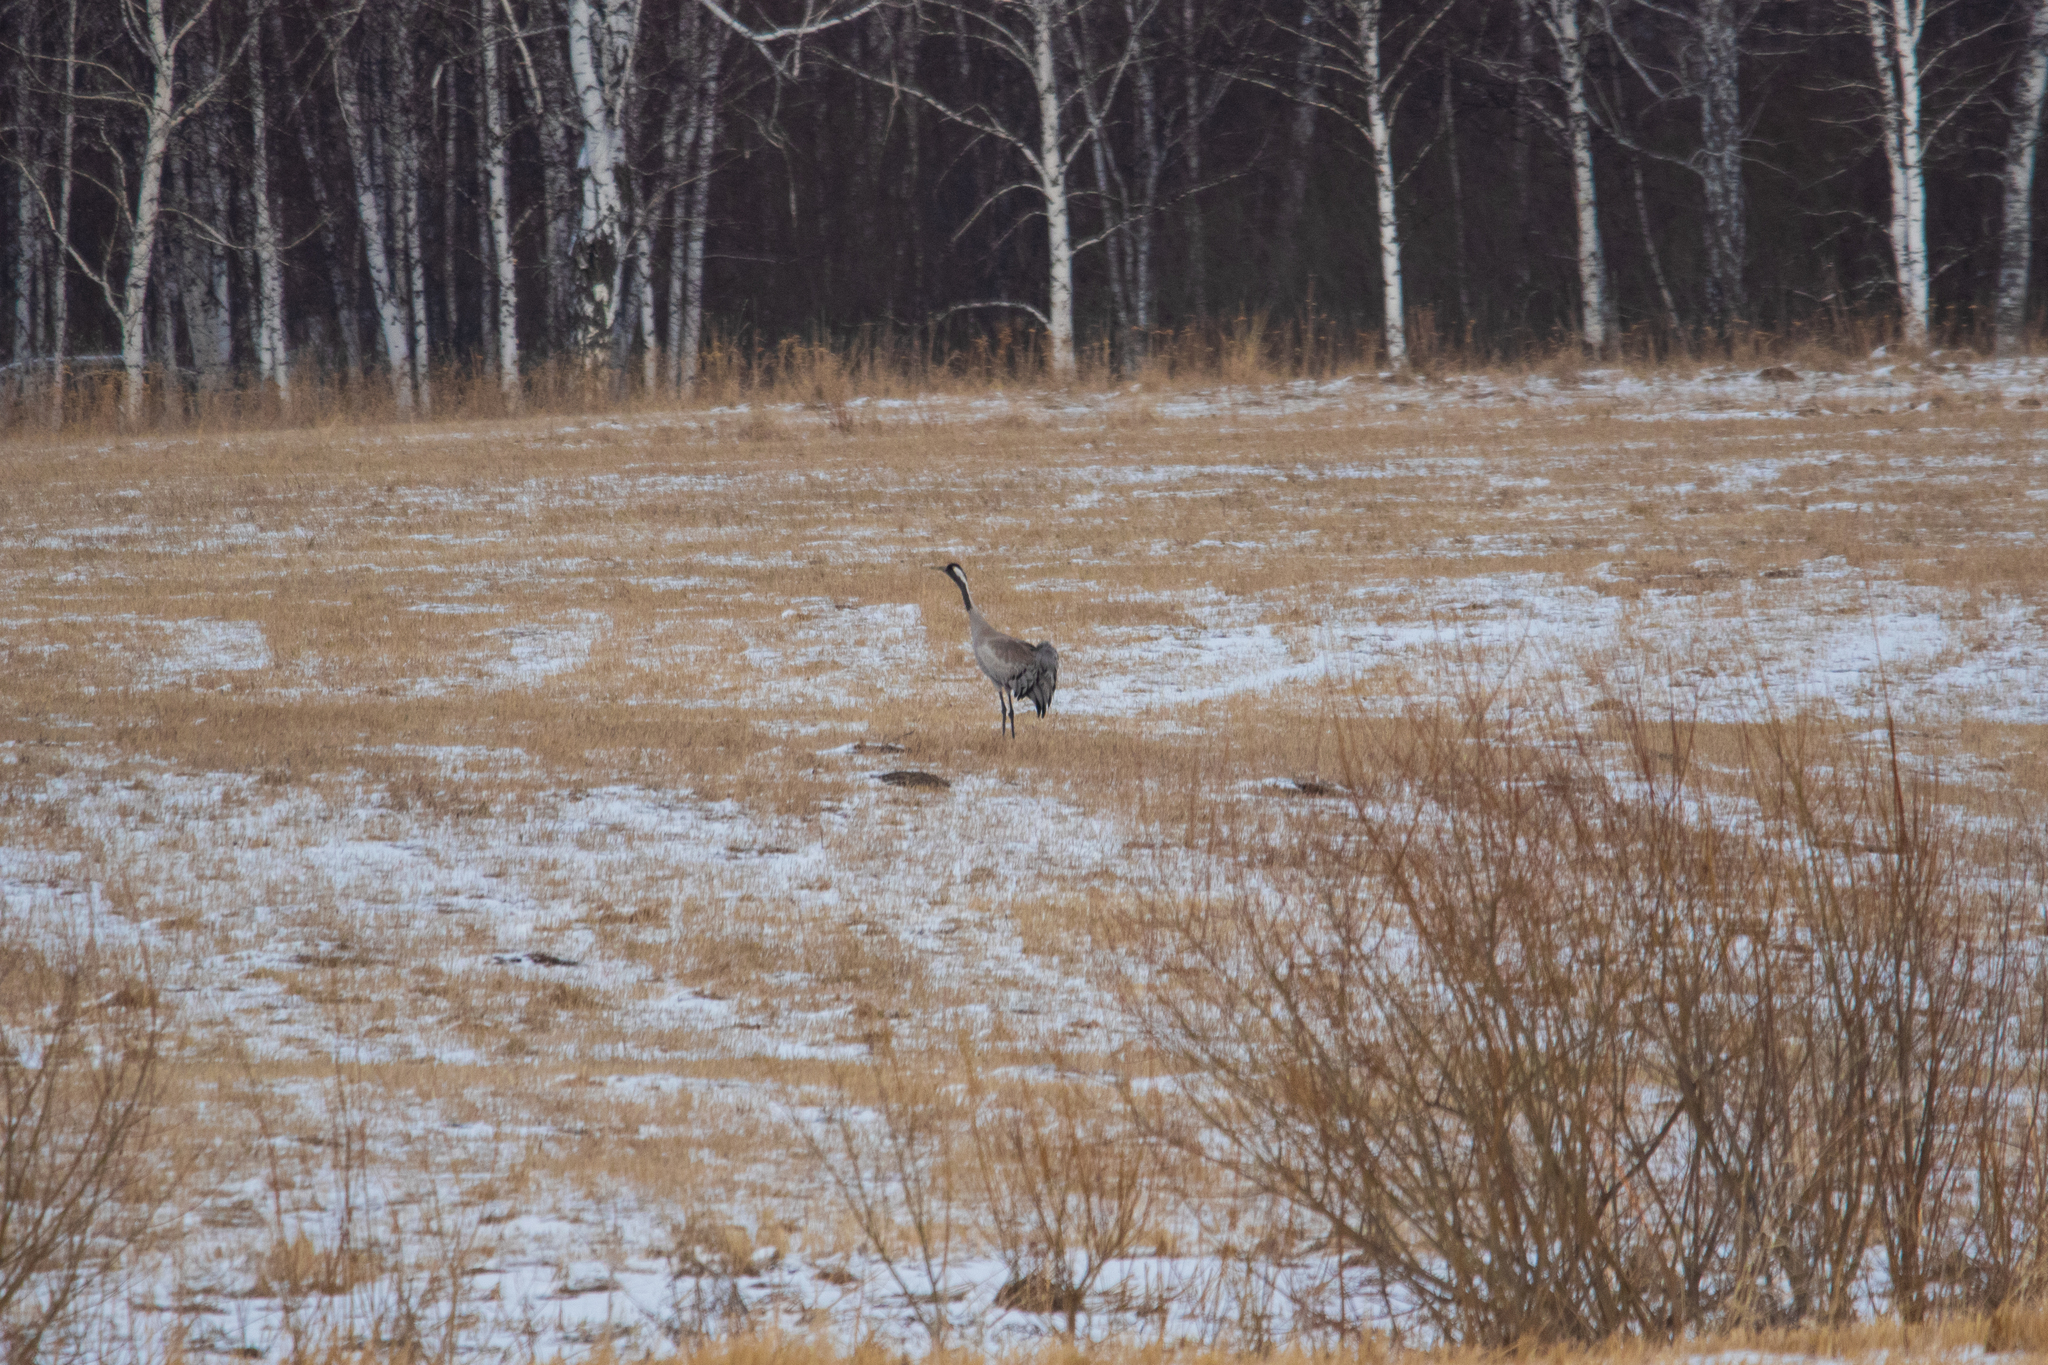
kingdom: Animalia
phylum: Chordata
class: Aves
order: Gruiformes
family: Gruidae
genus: Grus
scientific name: Grus grus
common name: Common crane
